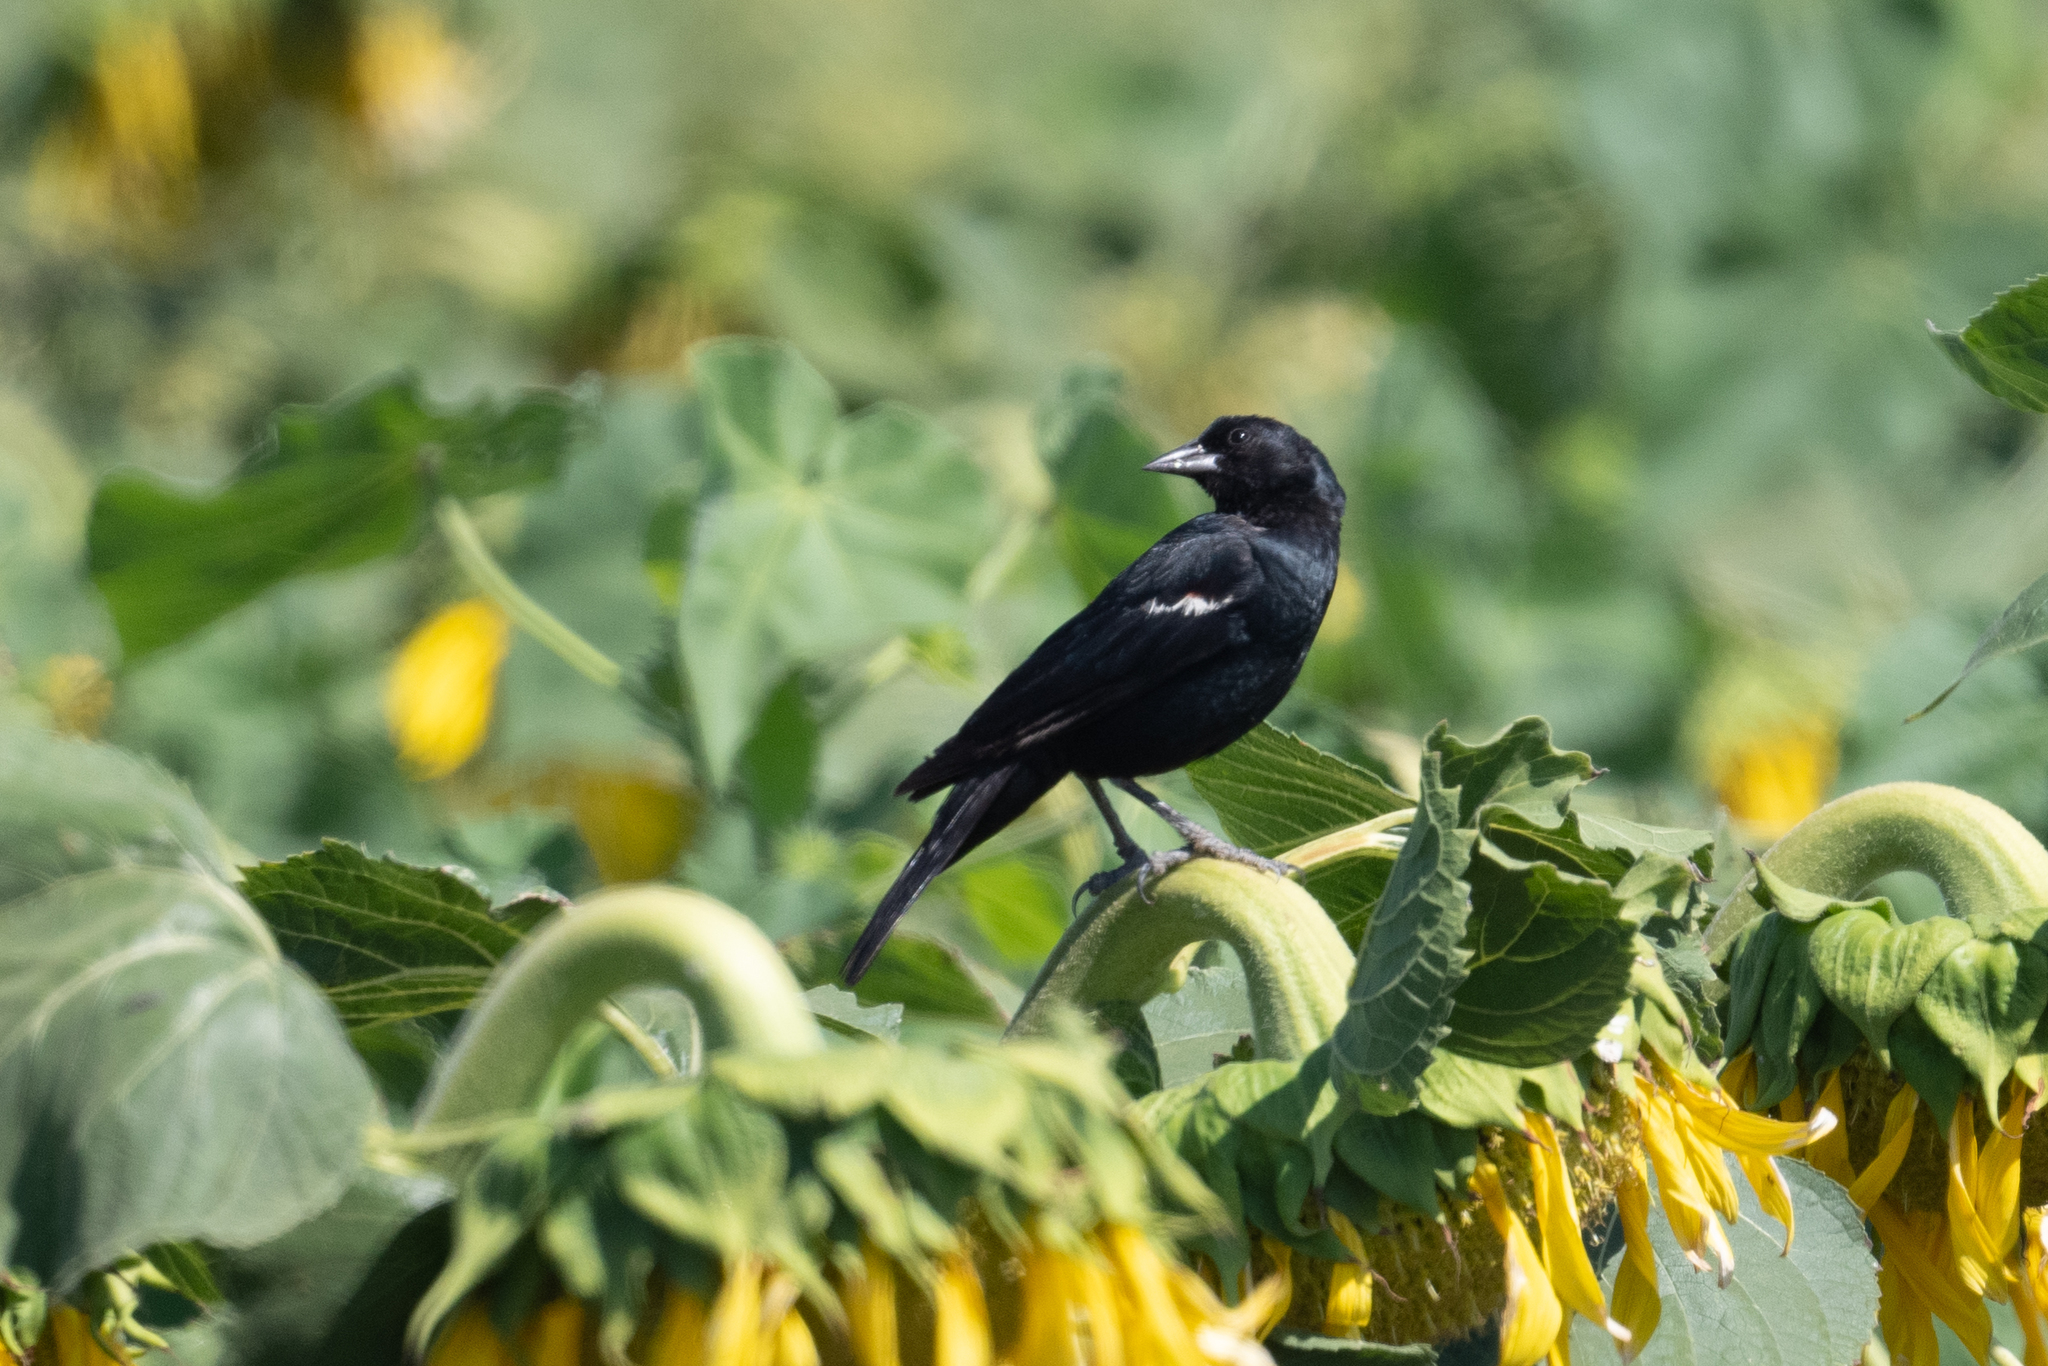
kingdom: Animalia
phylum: Chordata
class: Aves
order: Passeriformes
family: Icteridae
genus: Agelaius
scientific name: Agelaius tricolor
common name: Tricolored blackbird
